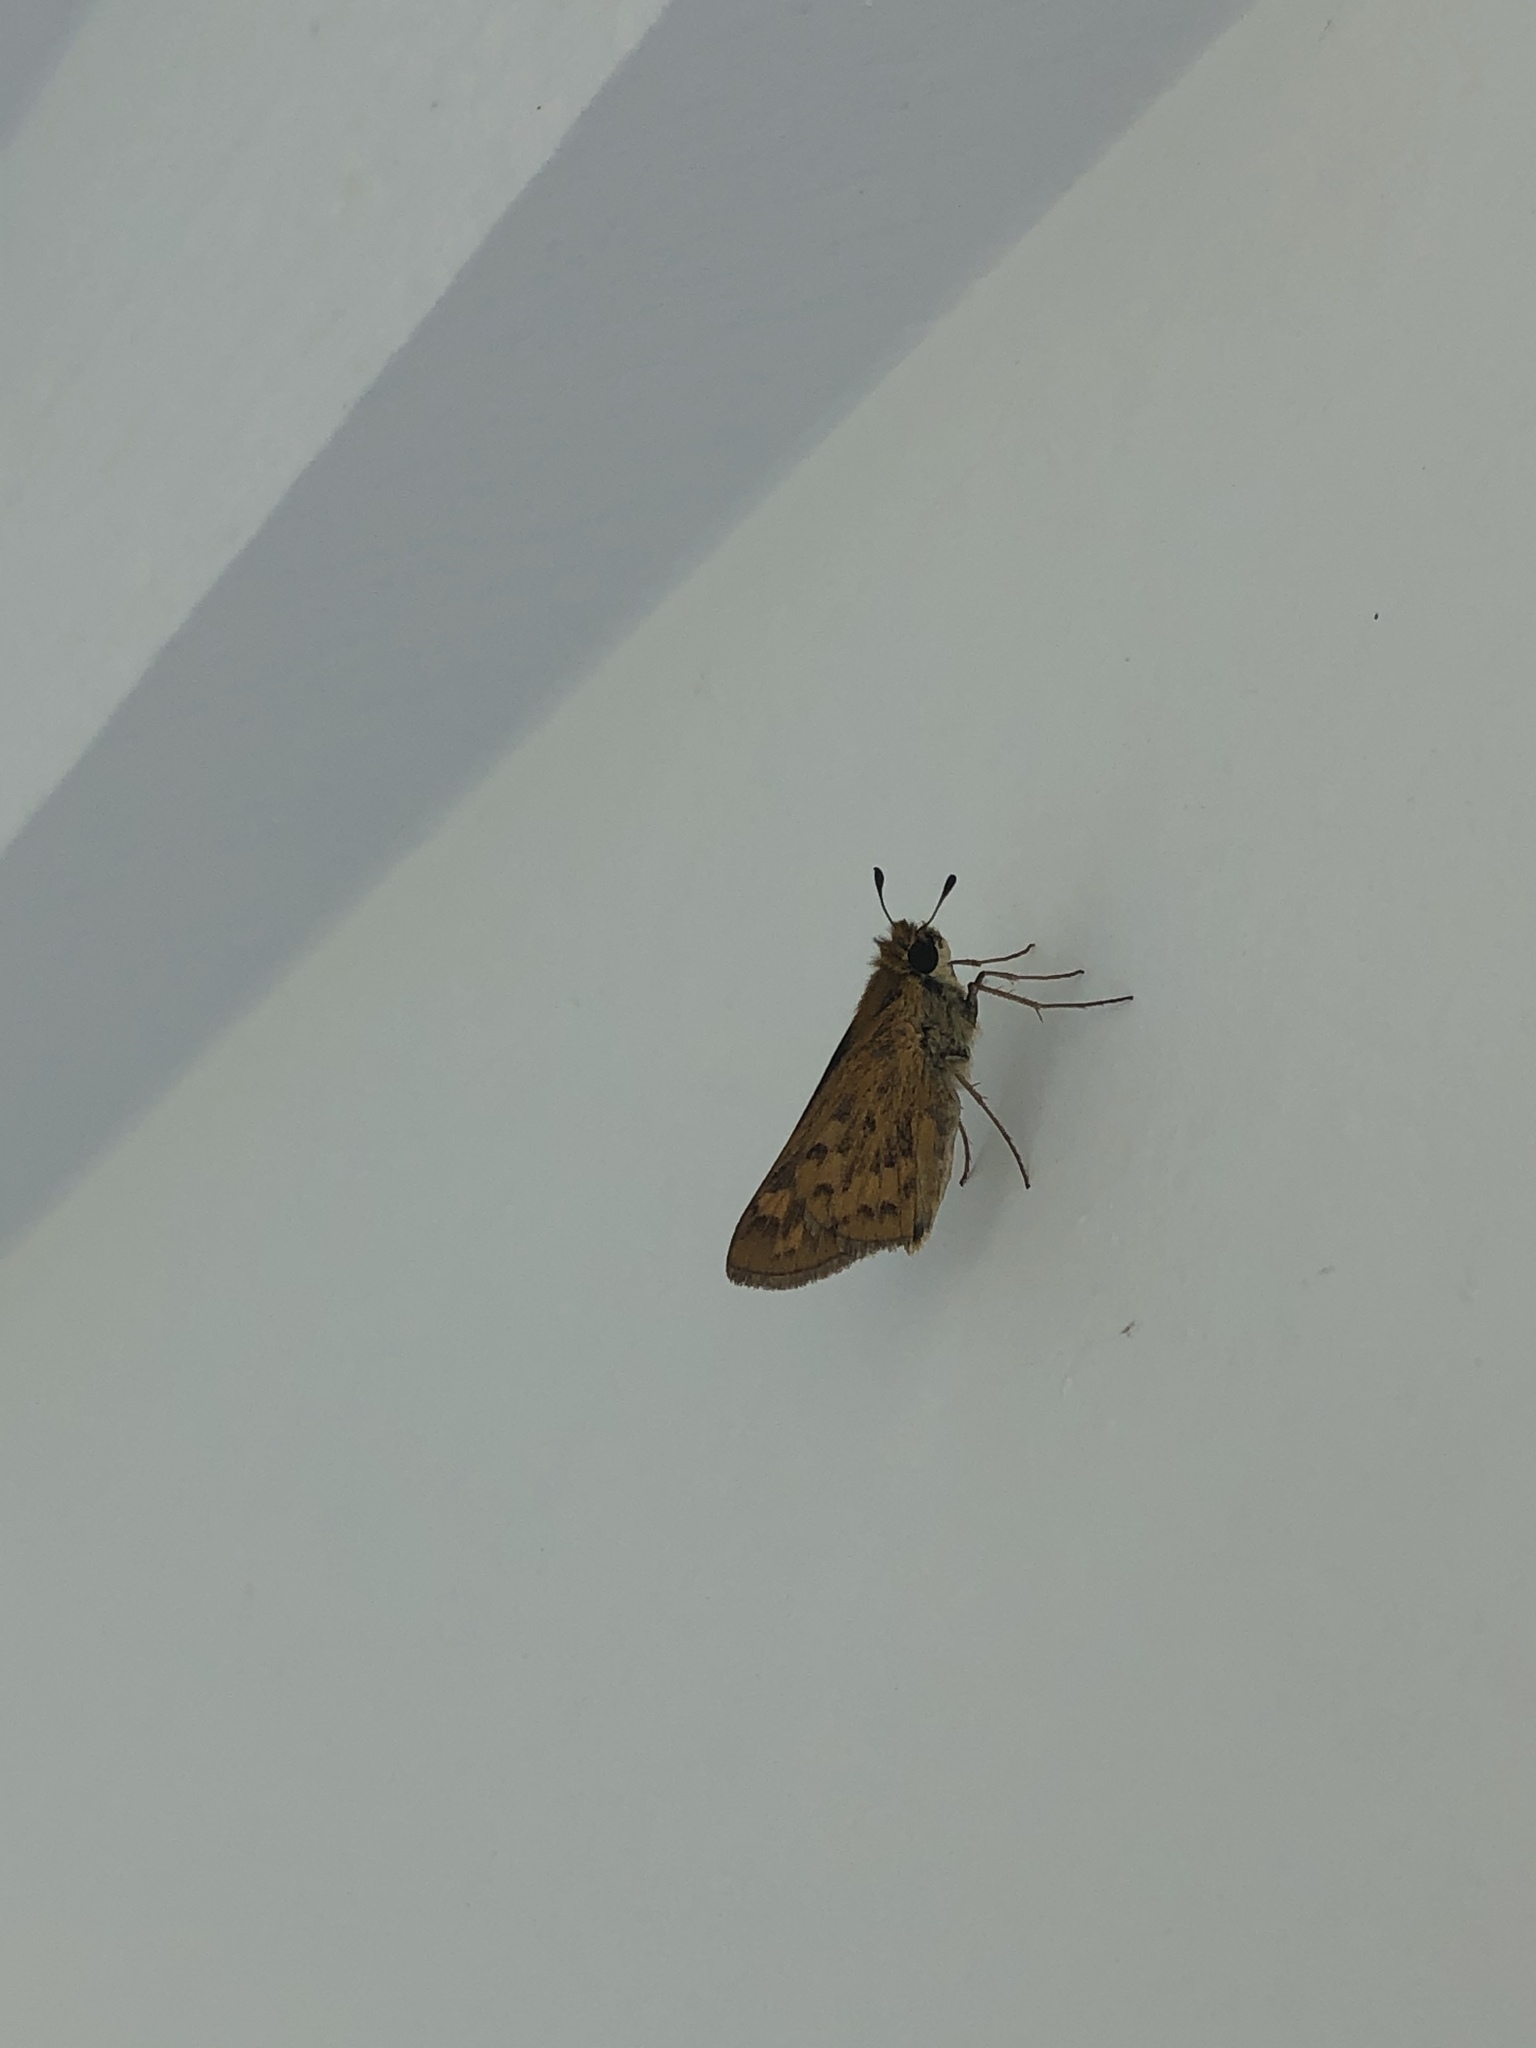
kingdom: Animalia
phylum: Arthropoda
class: Insecta
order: Lepidoptera
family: Hesperiidae
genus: Hylephila
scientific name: Hylephila phyleus
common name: Fiery skipper
